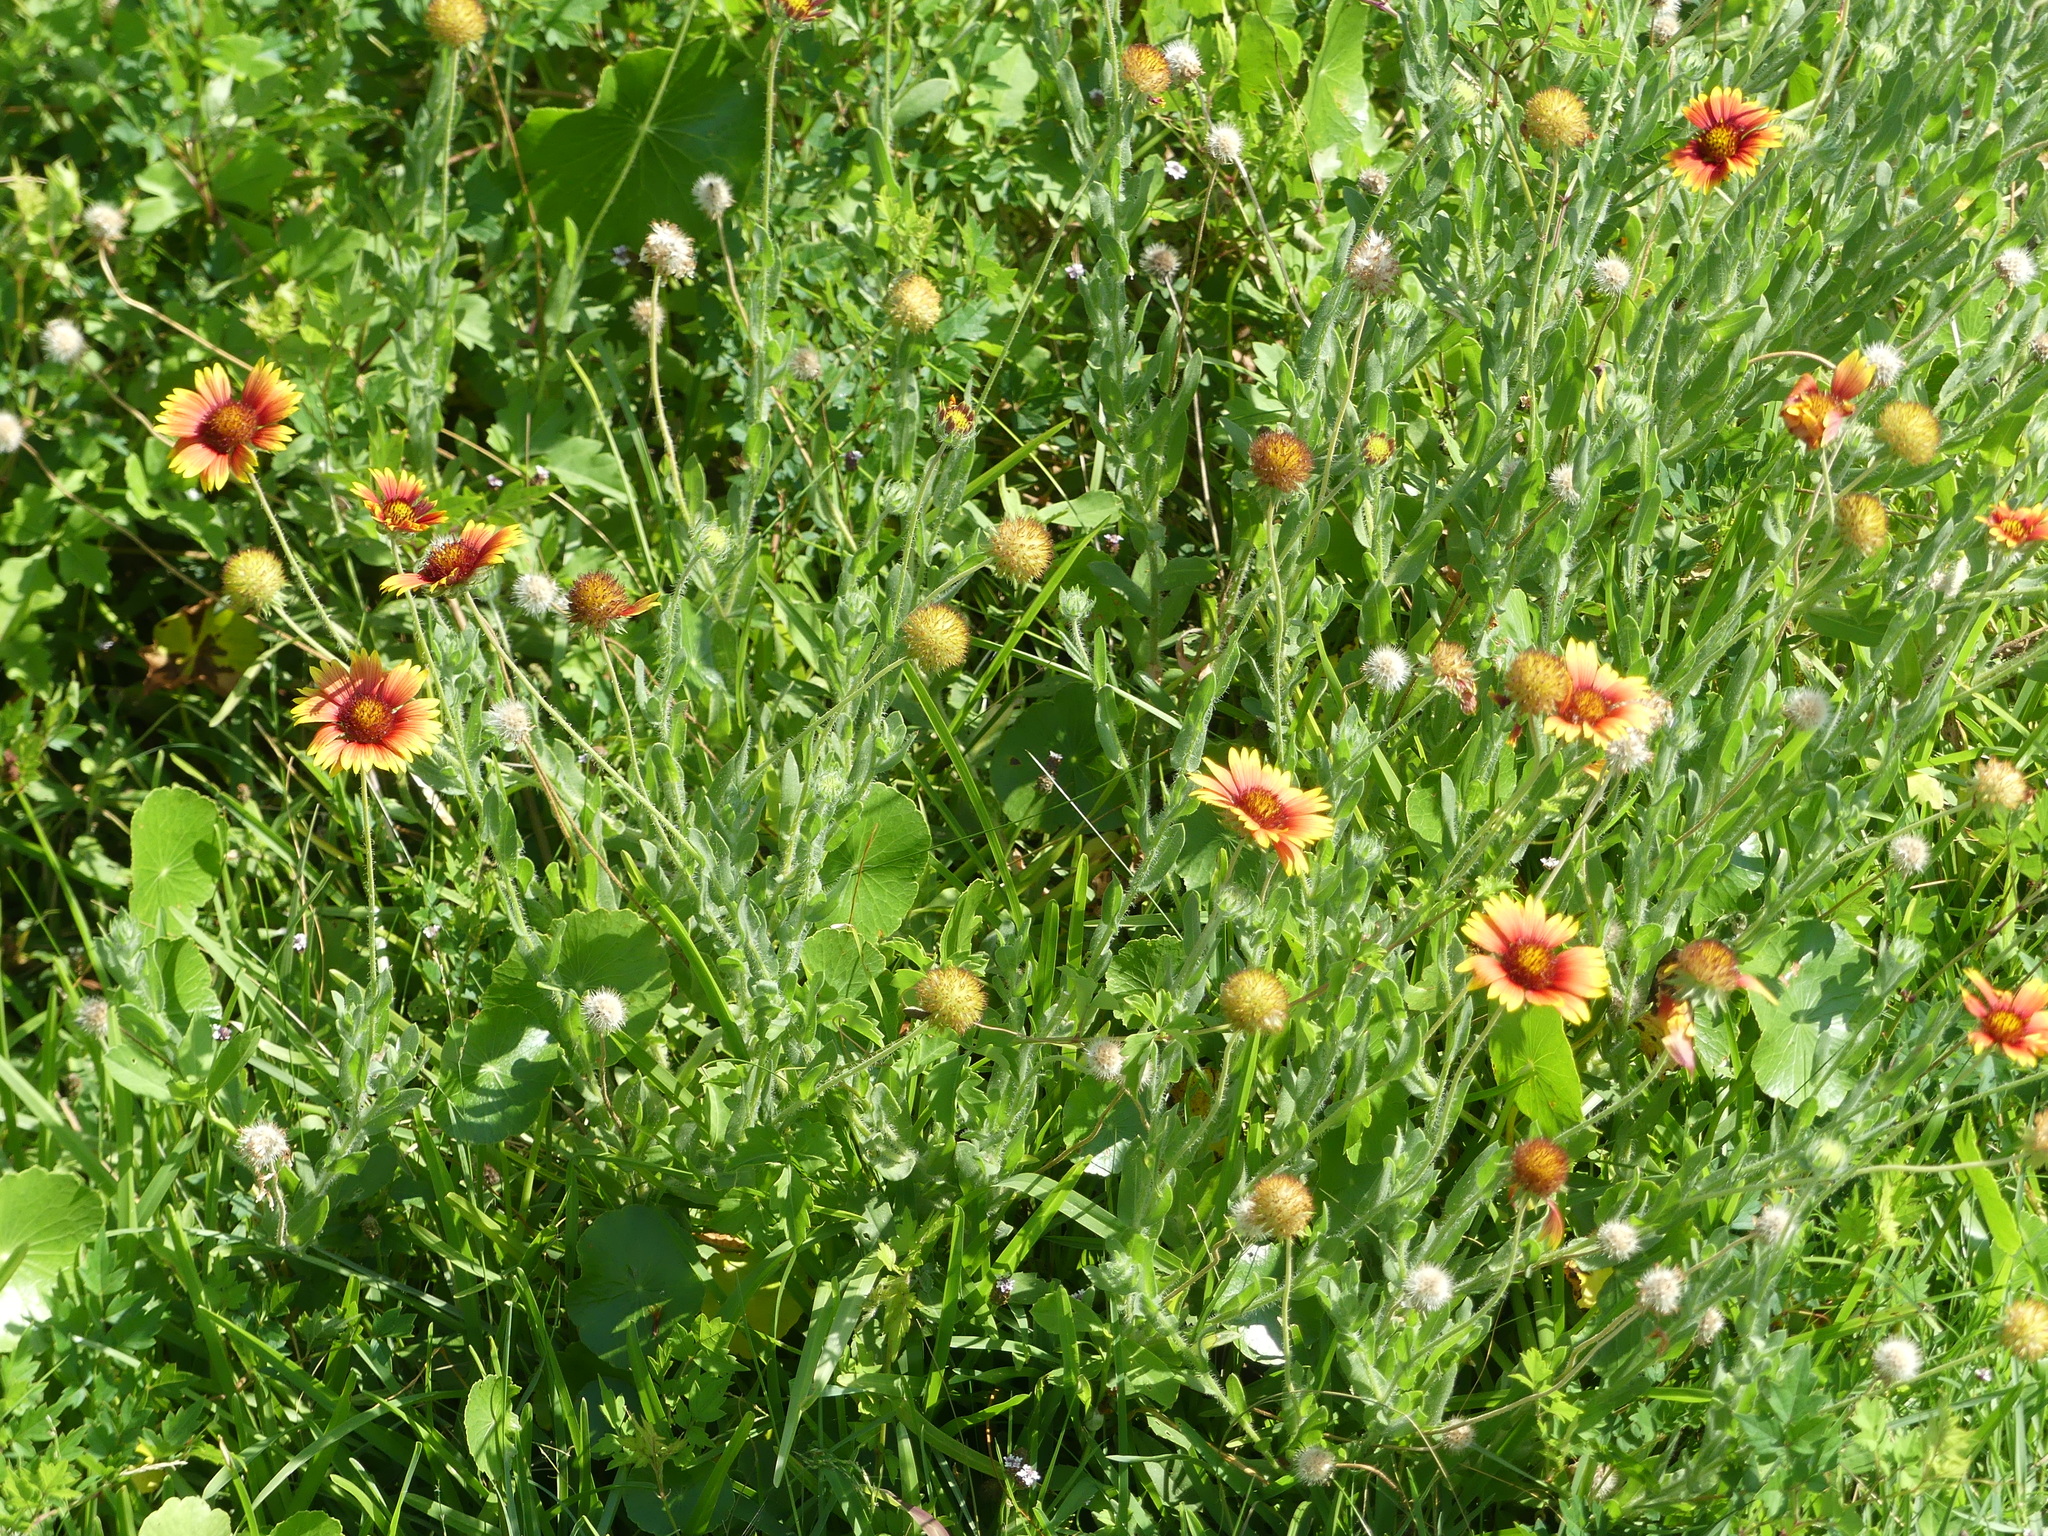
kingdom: Plantae
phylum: Tracheophyta
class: Magnoliopsida
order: Asterales
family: Asteraceae
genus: Gaillardia
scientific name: Gaillardia pulchella
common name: Firewheel
